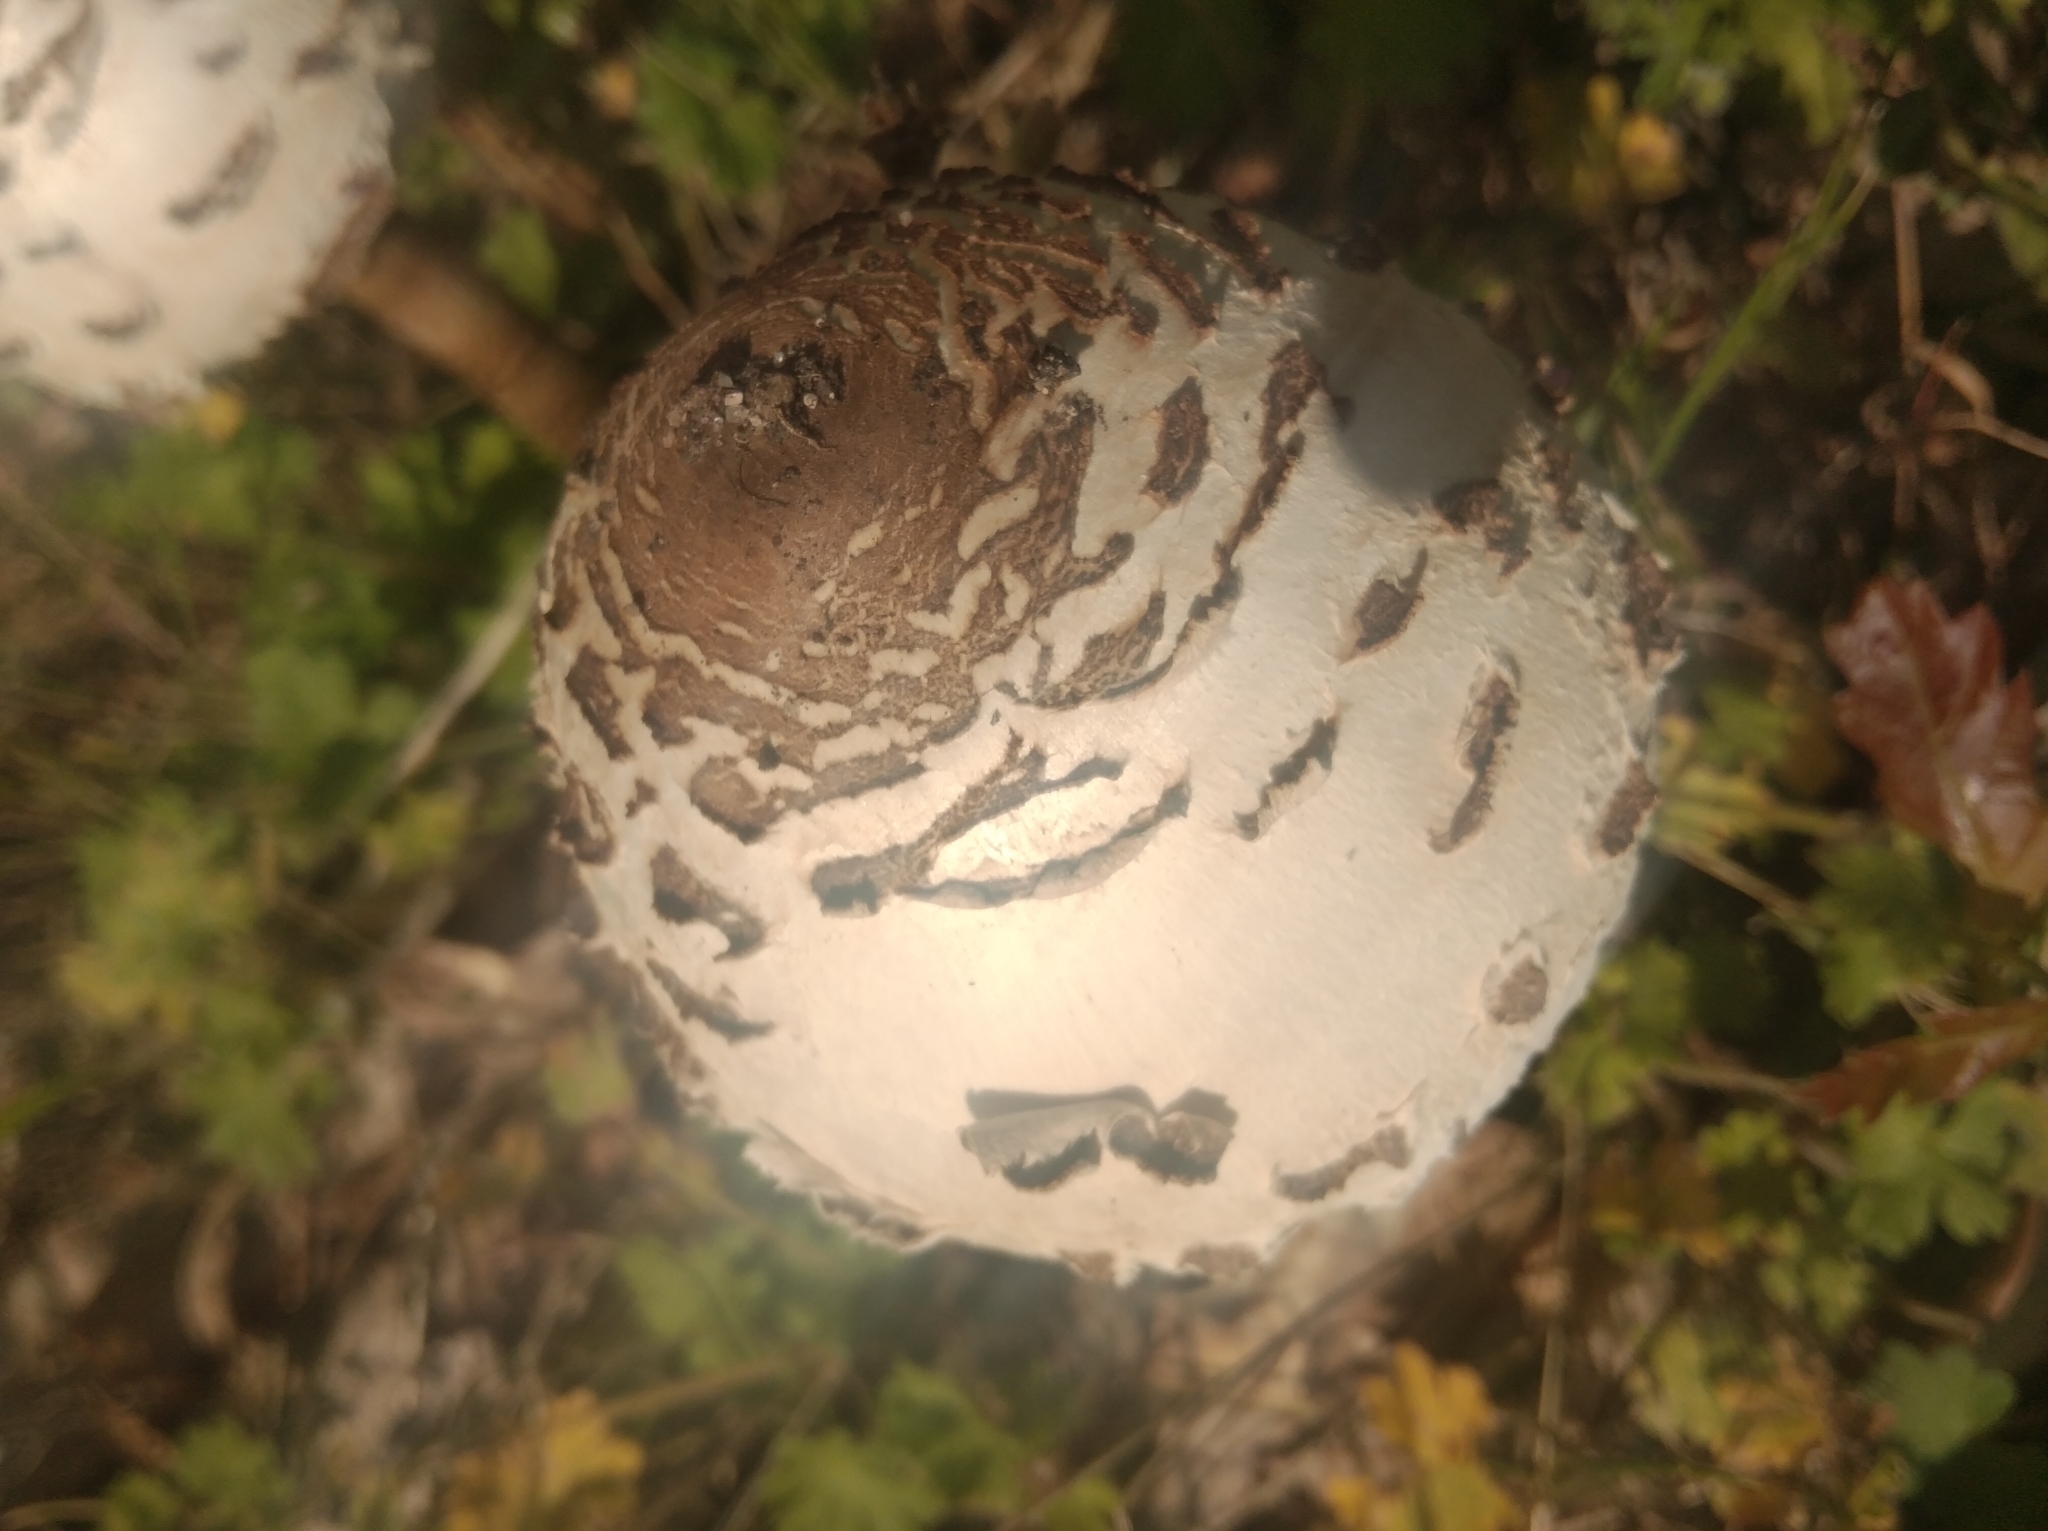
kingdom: Fungi
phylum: Basidiomycota
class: Agaricomycetes
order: Agaricales
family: Agaricaceae
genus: Macrolepiota
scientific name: Macrolepiota procera
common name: Parasol
